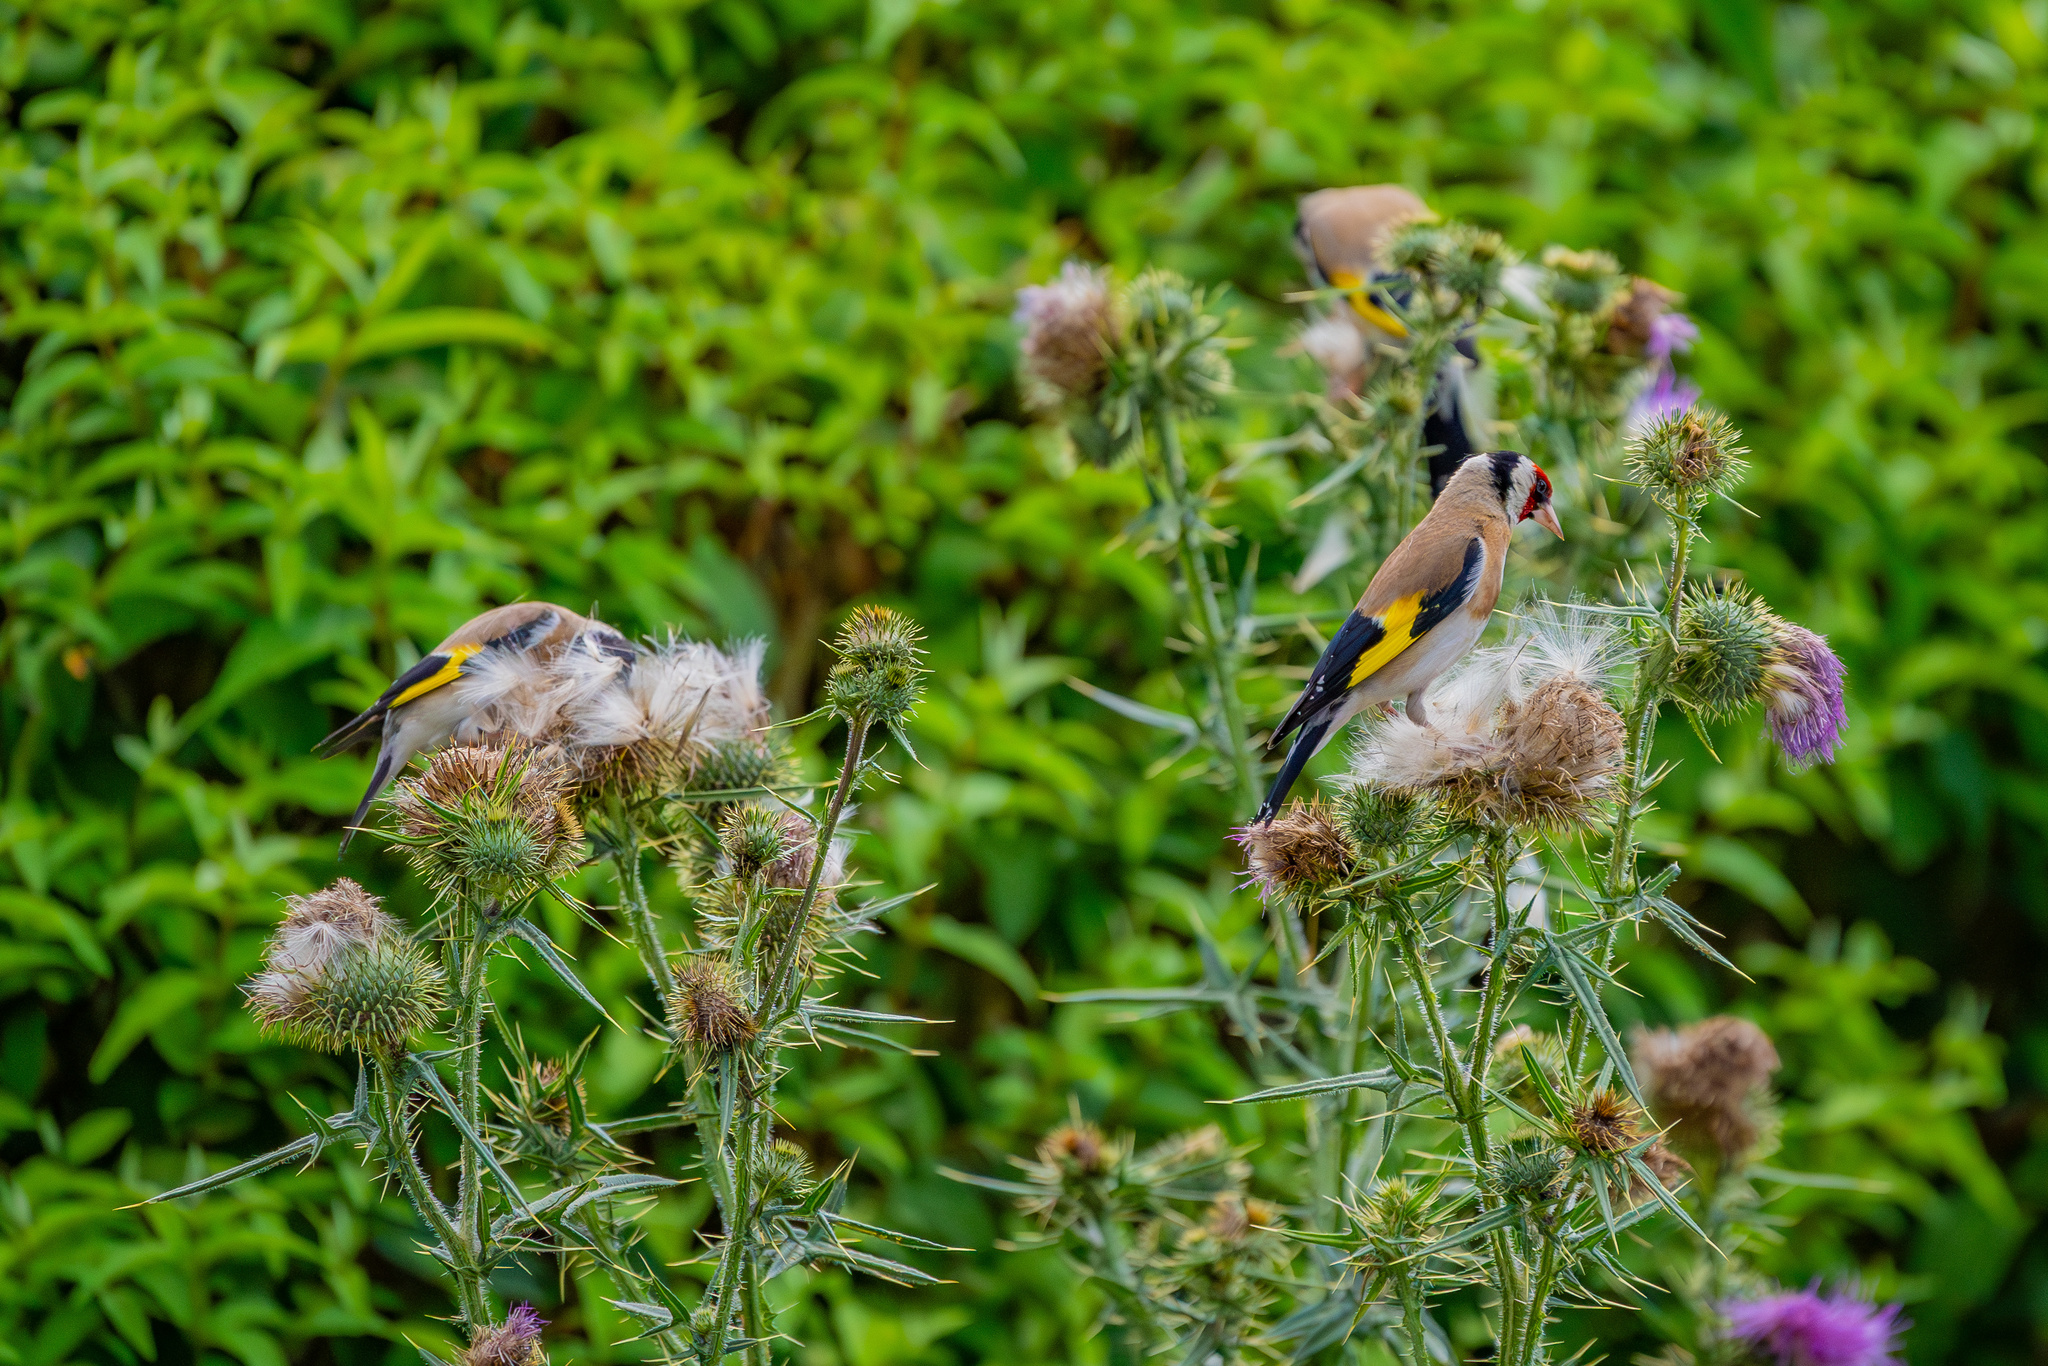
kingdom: Animalia
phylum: Chordata
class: Aves
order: Passeriformes
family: Fringillidae
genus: Carduelis
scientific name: Carduelis carduelis
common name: European goldfinch
